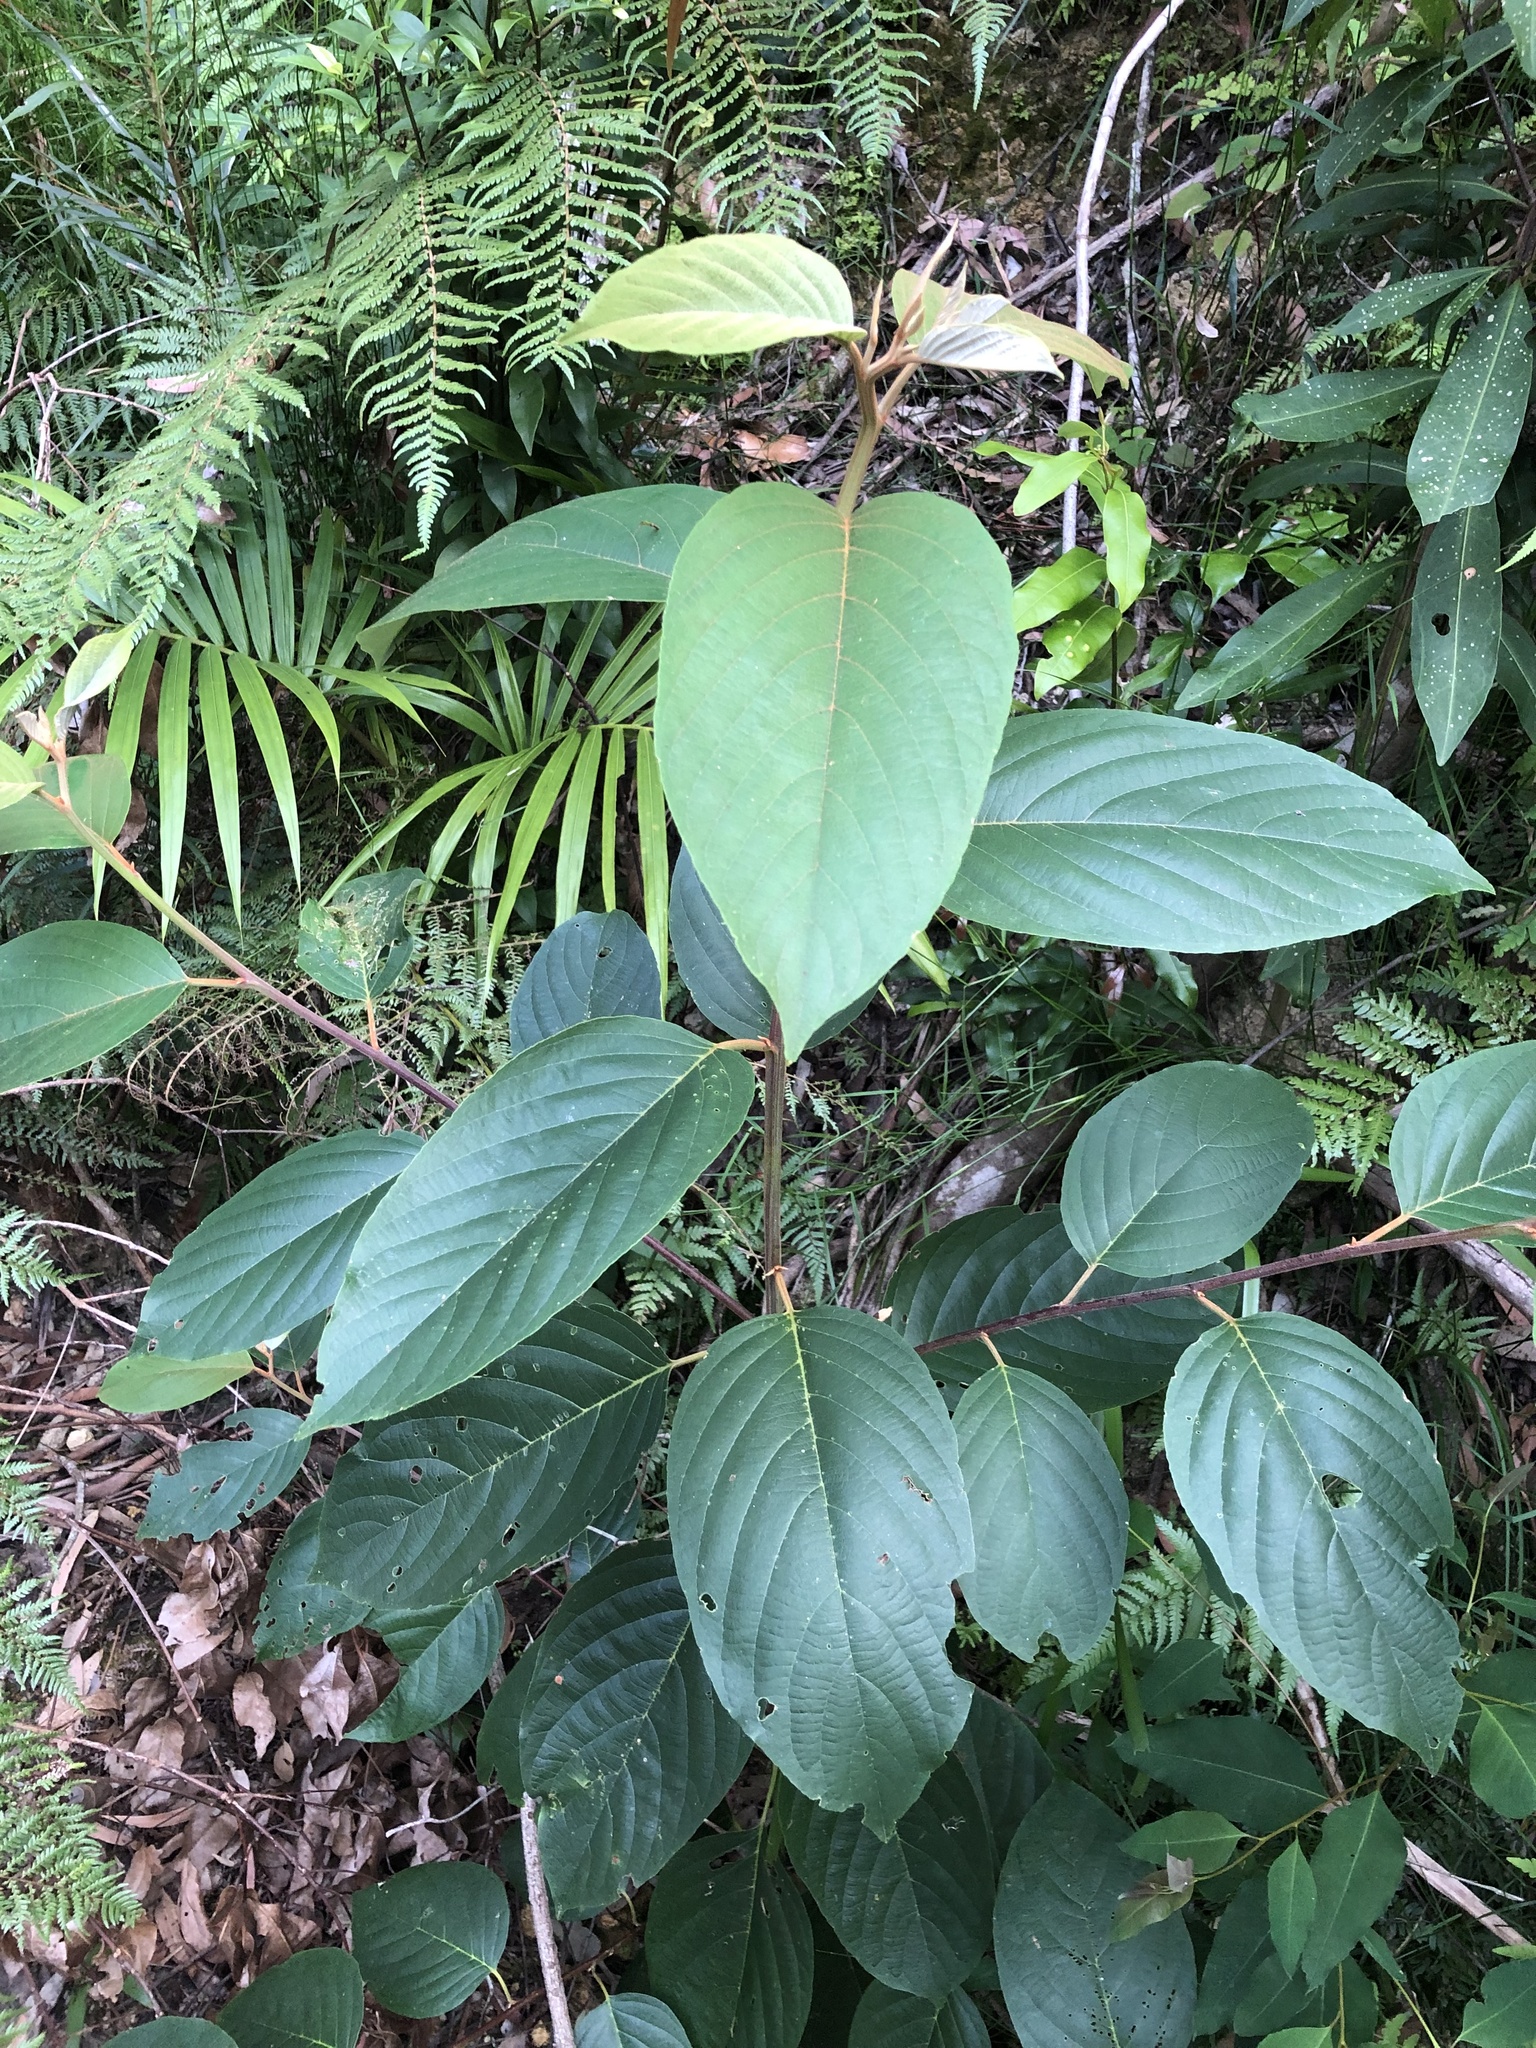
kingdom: Plantae
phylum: Tracheophyta
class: Magnoliopsida
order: Rosales
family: Rhamnaceae
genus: Alphitonia
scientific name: Alphitonia petriei
